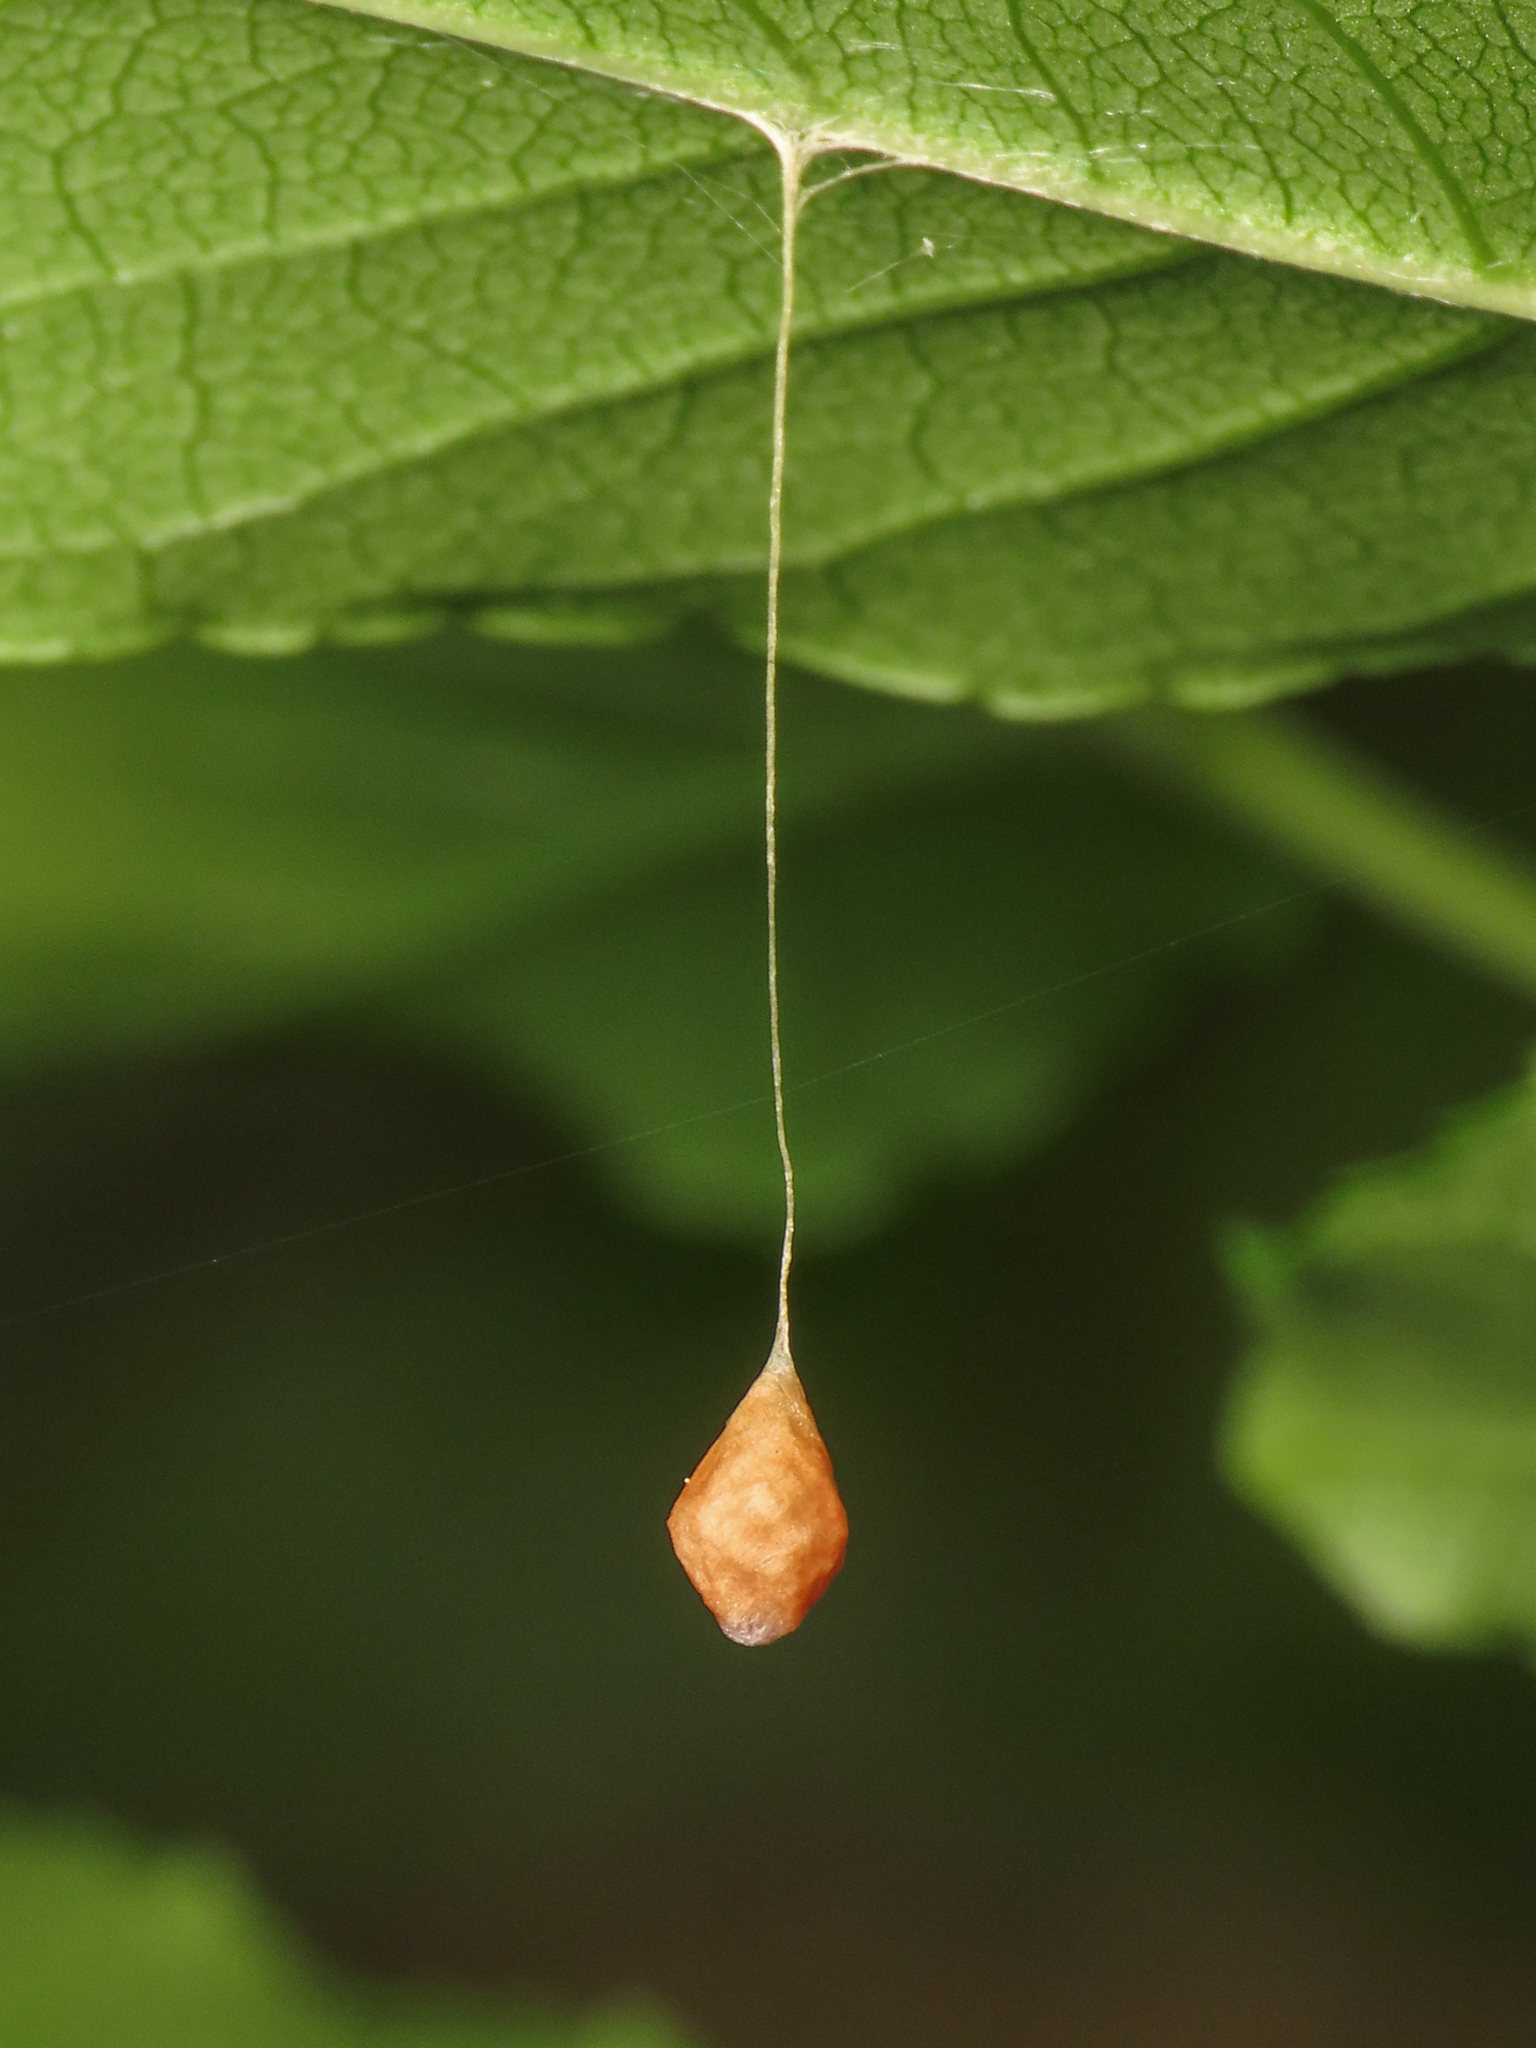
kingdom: Animalia
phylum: Arthropoda
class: Arachnida
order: Araneae
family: Theridiosomatidae
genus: Theridiosoma
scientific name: Theridiosoma gemmosum
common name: Ray spider
